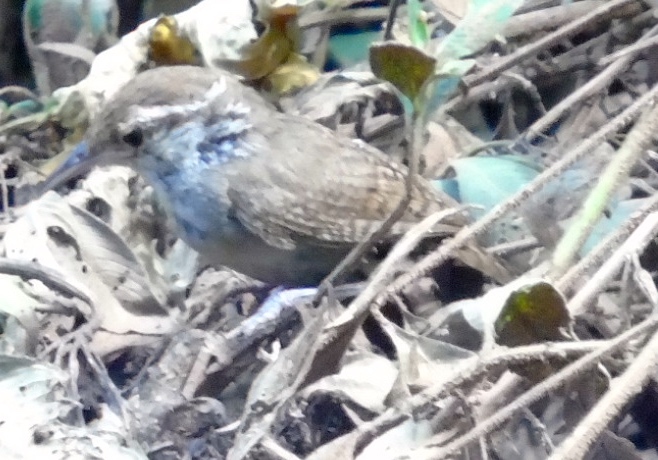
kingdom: Animalia
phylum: Chordata
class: Aves
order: Passeriformes
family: Troglodytidae
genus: Thryophilus
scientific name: Thryophilus sinaloa
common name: Sinaloa wren
